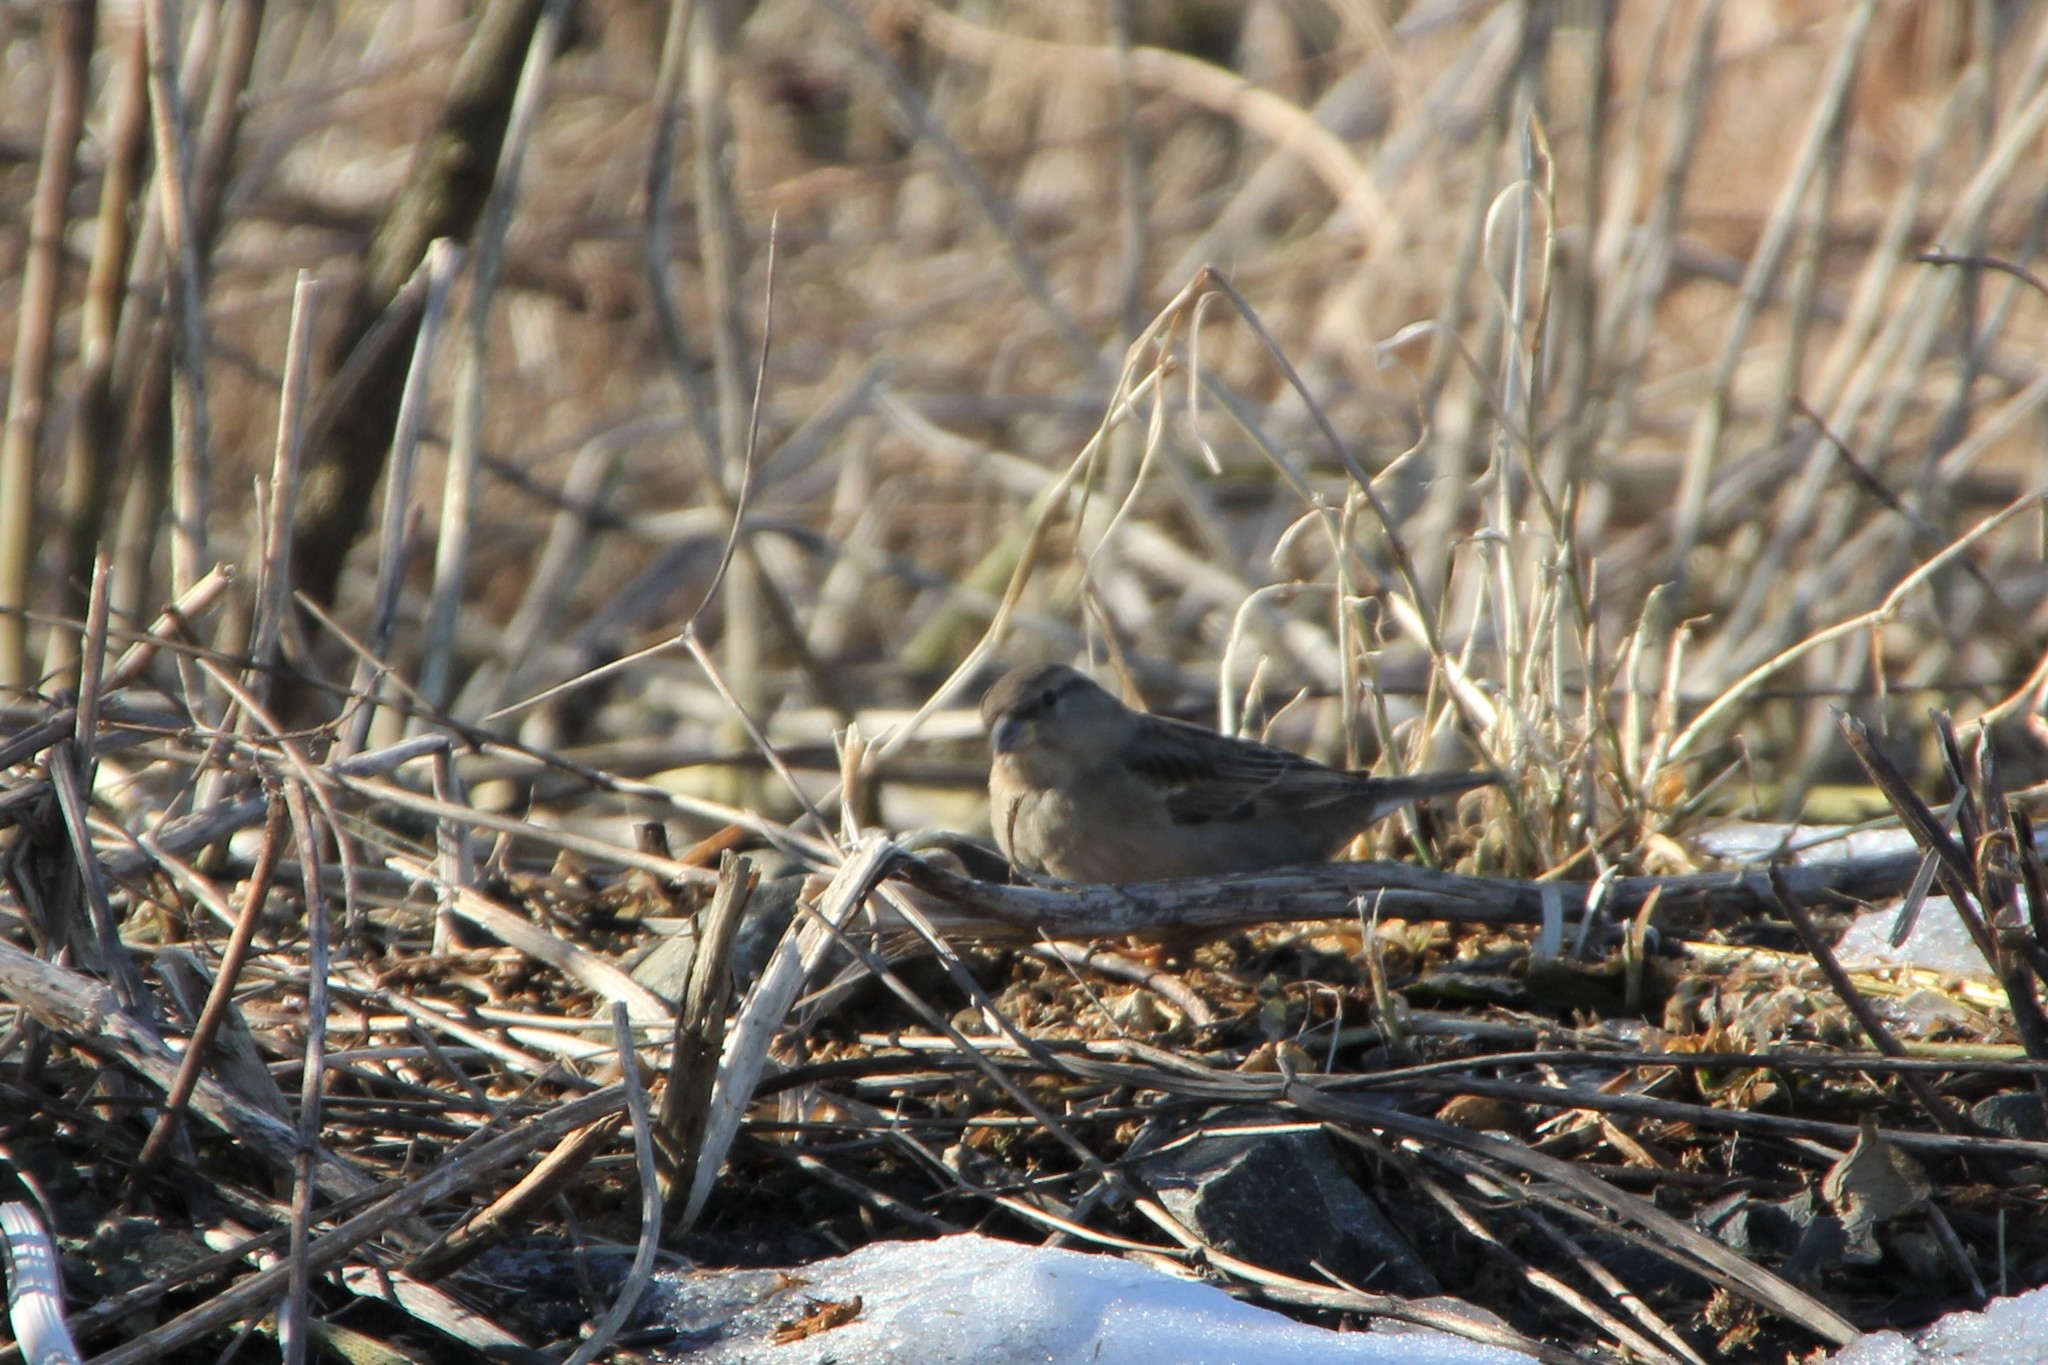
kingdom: Animalia
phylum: Chordata
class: Aves
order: Passeriformes
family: Passeridae
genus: Passer
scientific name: Passer domesticus
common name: House sparrow
